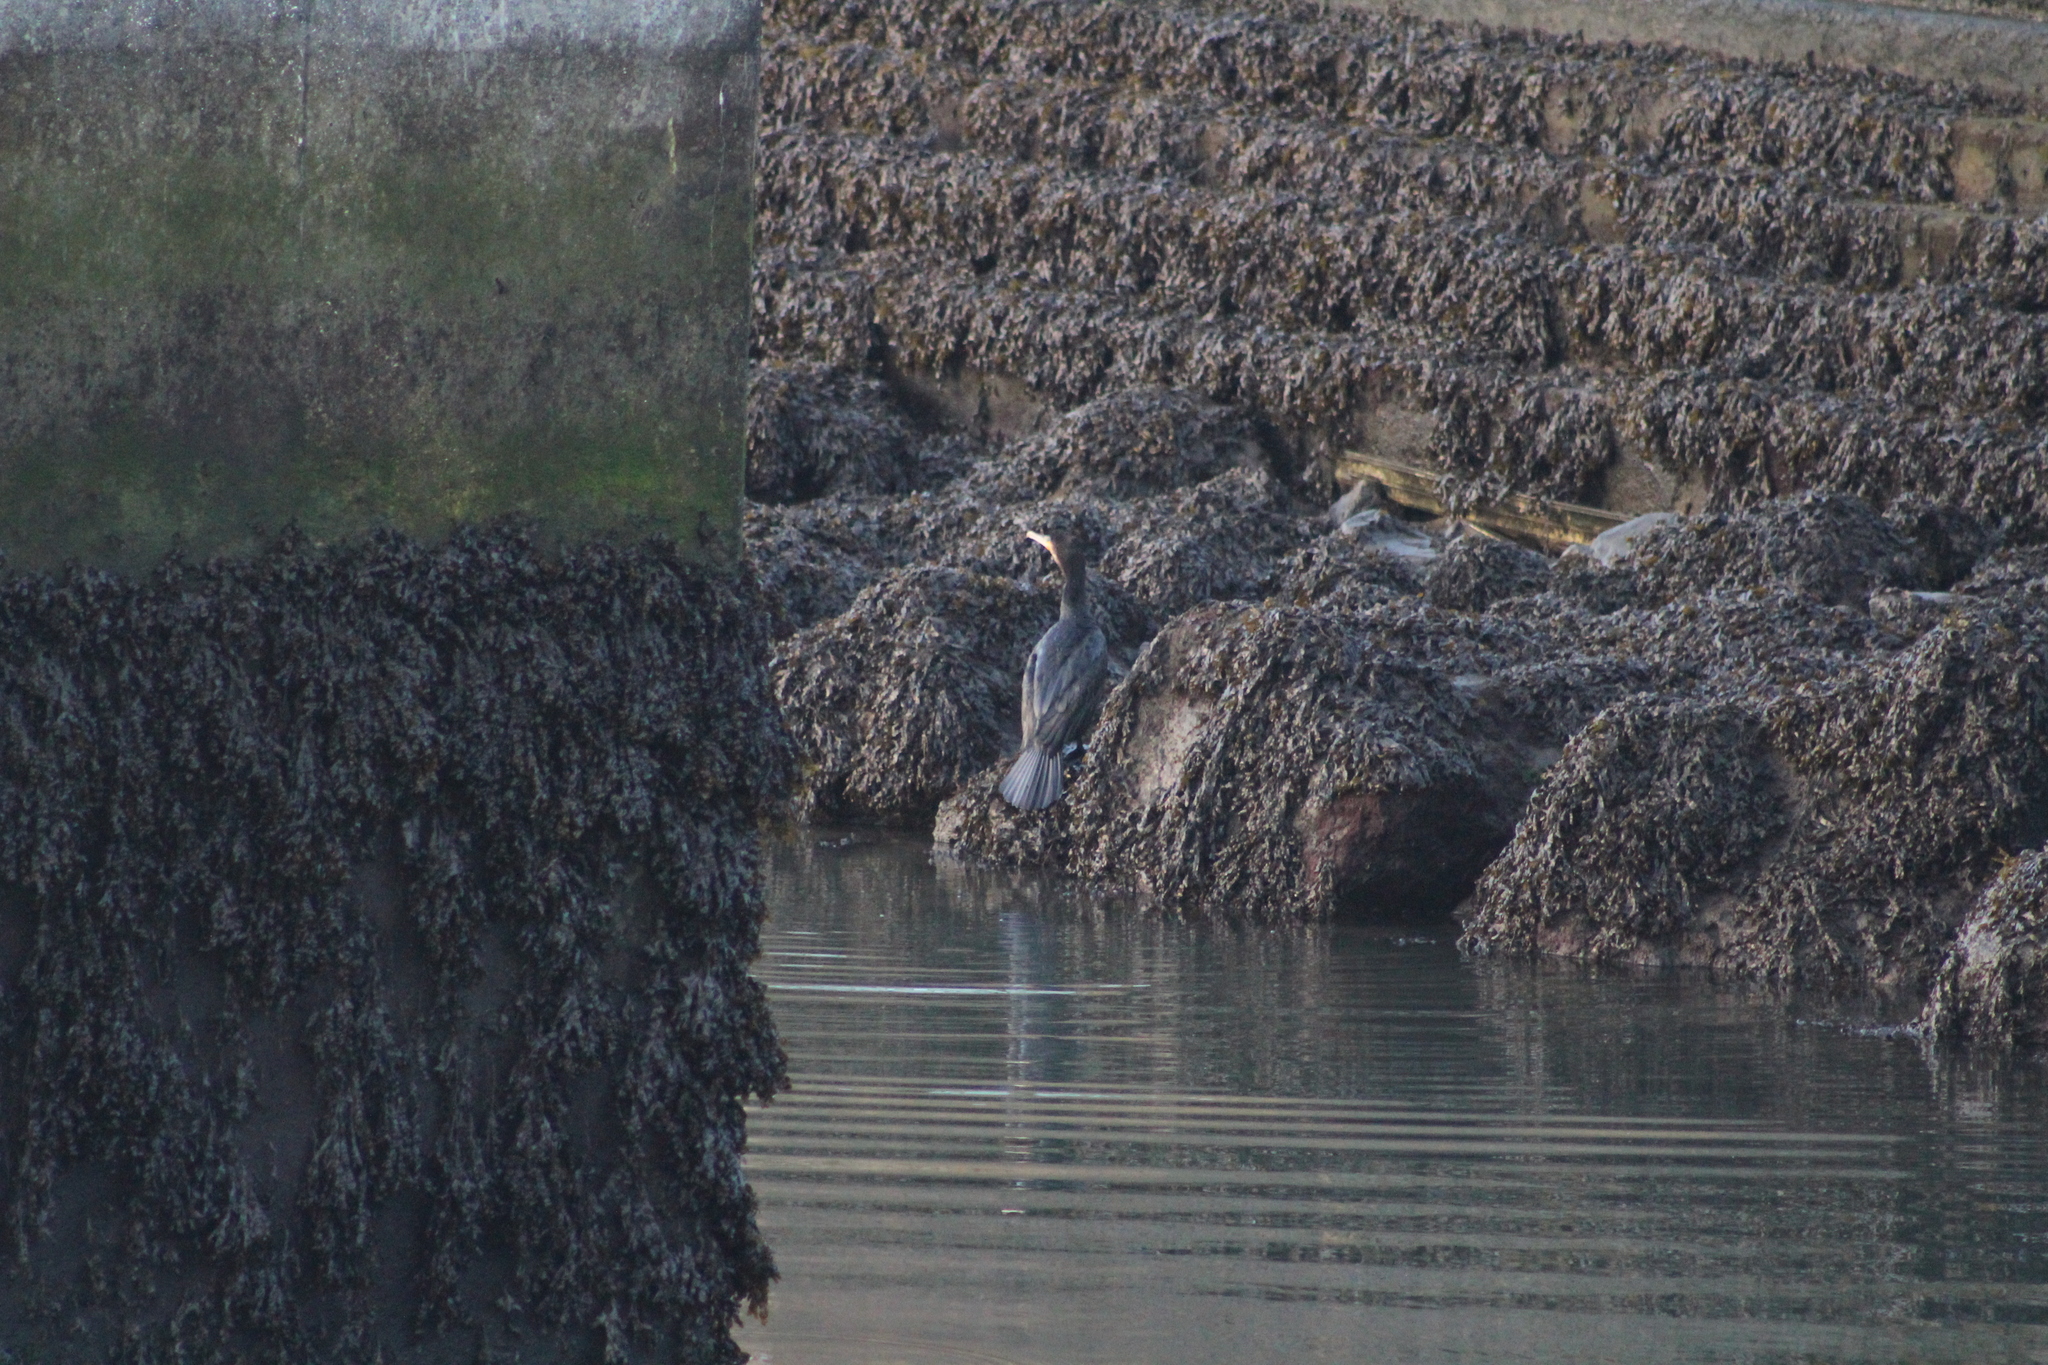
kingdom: Animalia
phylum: Chordata
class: Aves
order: Suliformes
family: Phalacrocoracidae
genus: Phalacrocorax
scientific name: Phalacrocorax carbo
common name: Great cormorant
